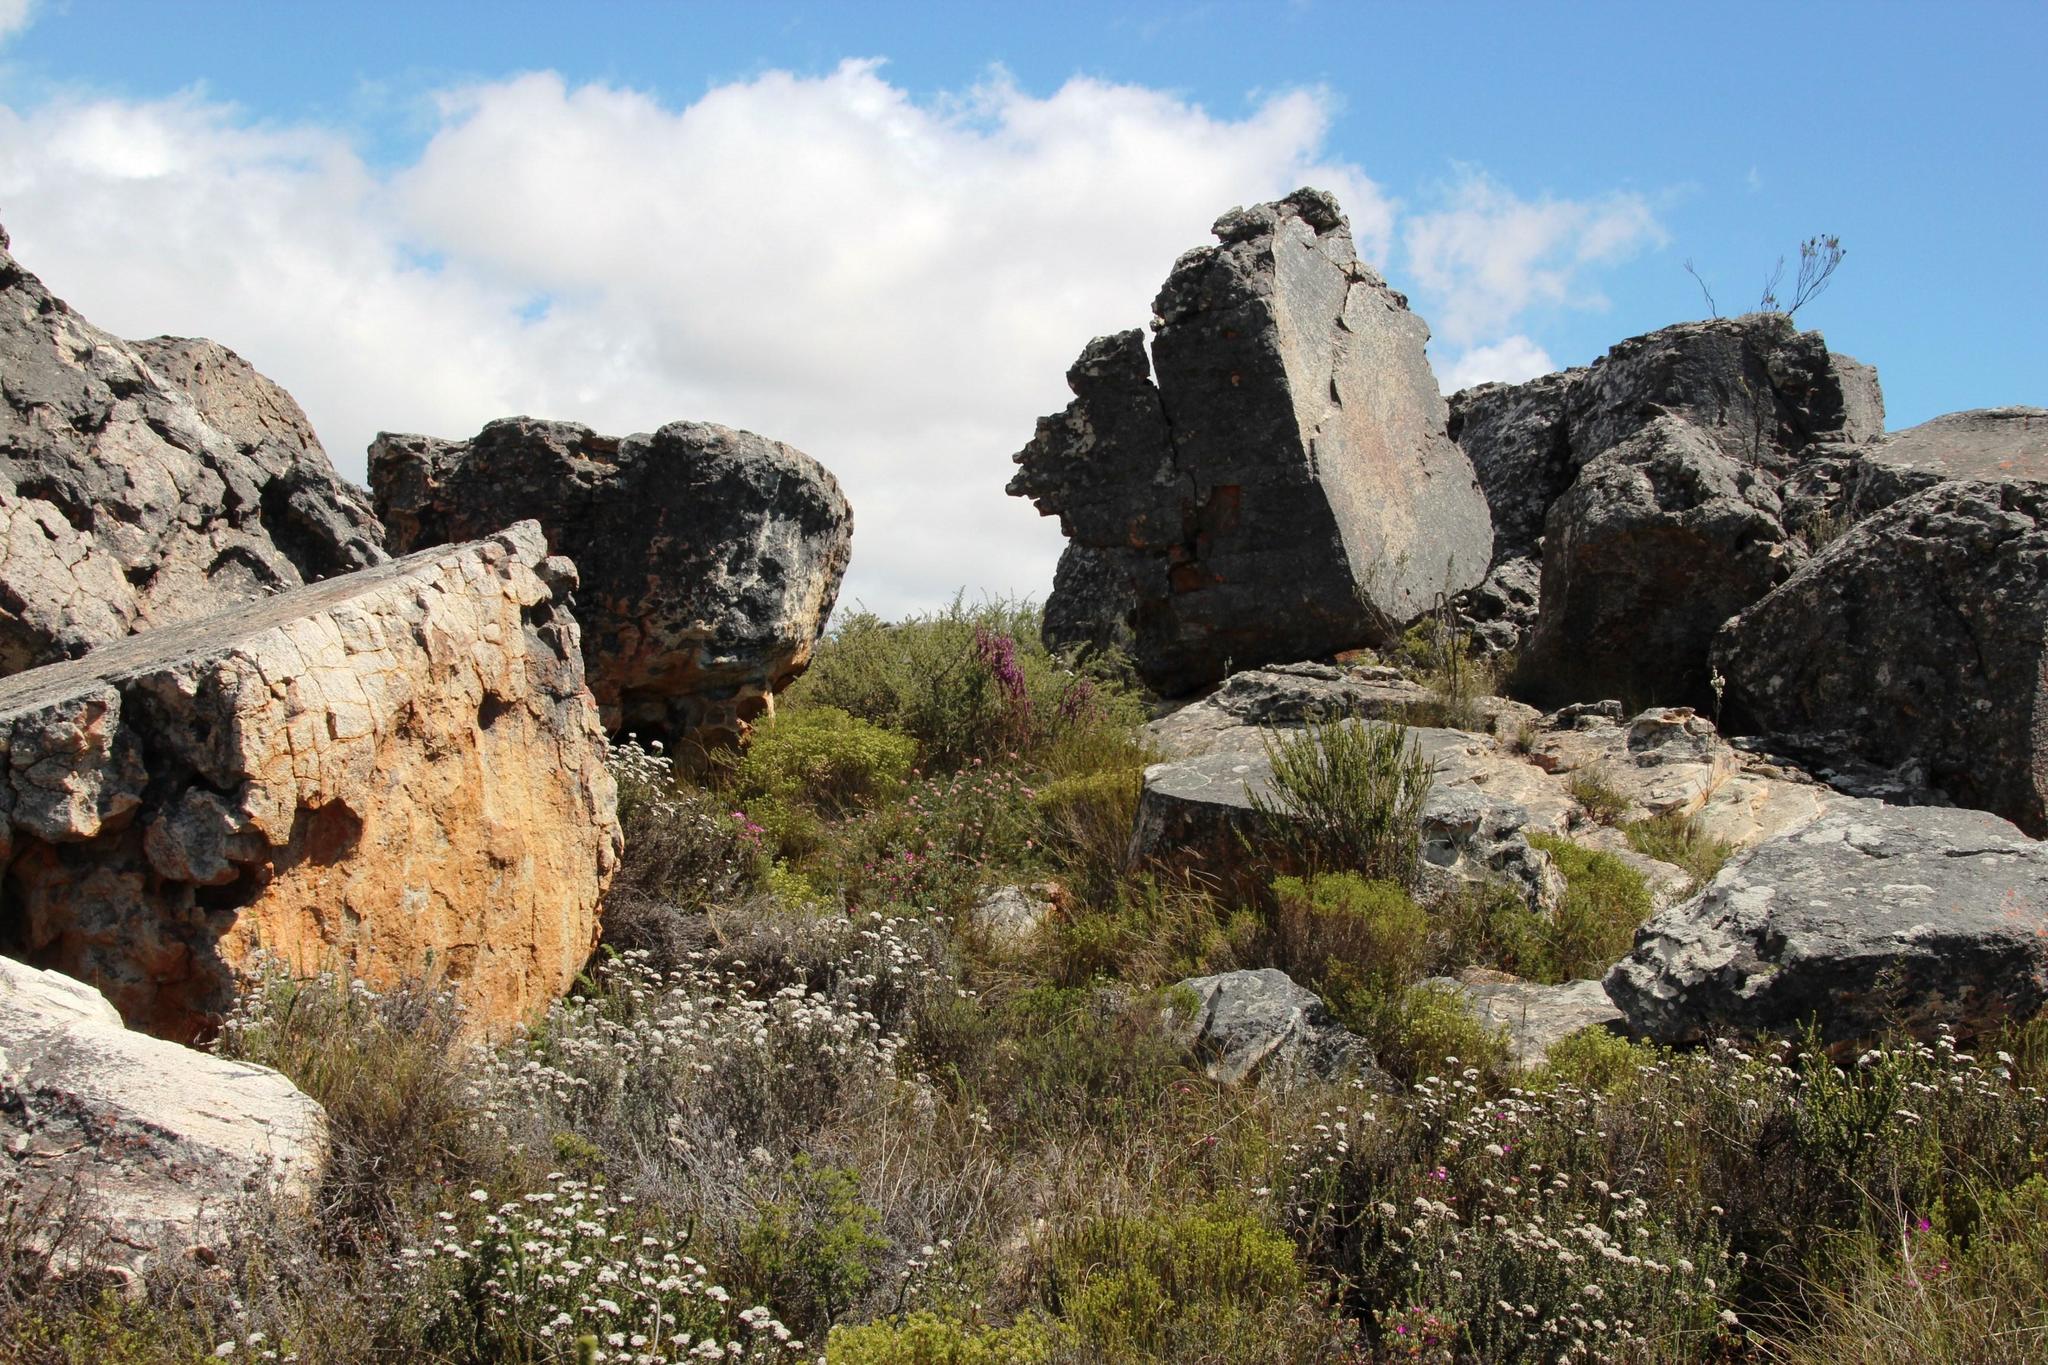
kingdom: Plantae
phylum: Tracheophyta
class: Magnoliopsida
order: Fabales
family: Polygalaceae
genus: Muraltia
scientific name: Muraltia heisteria
